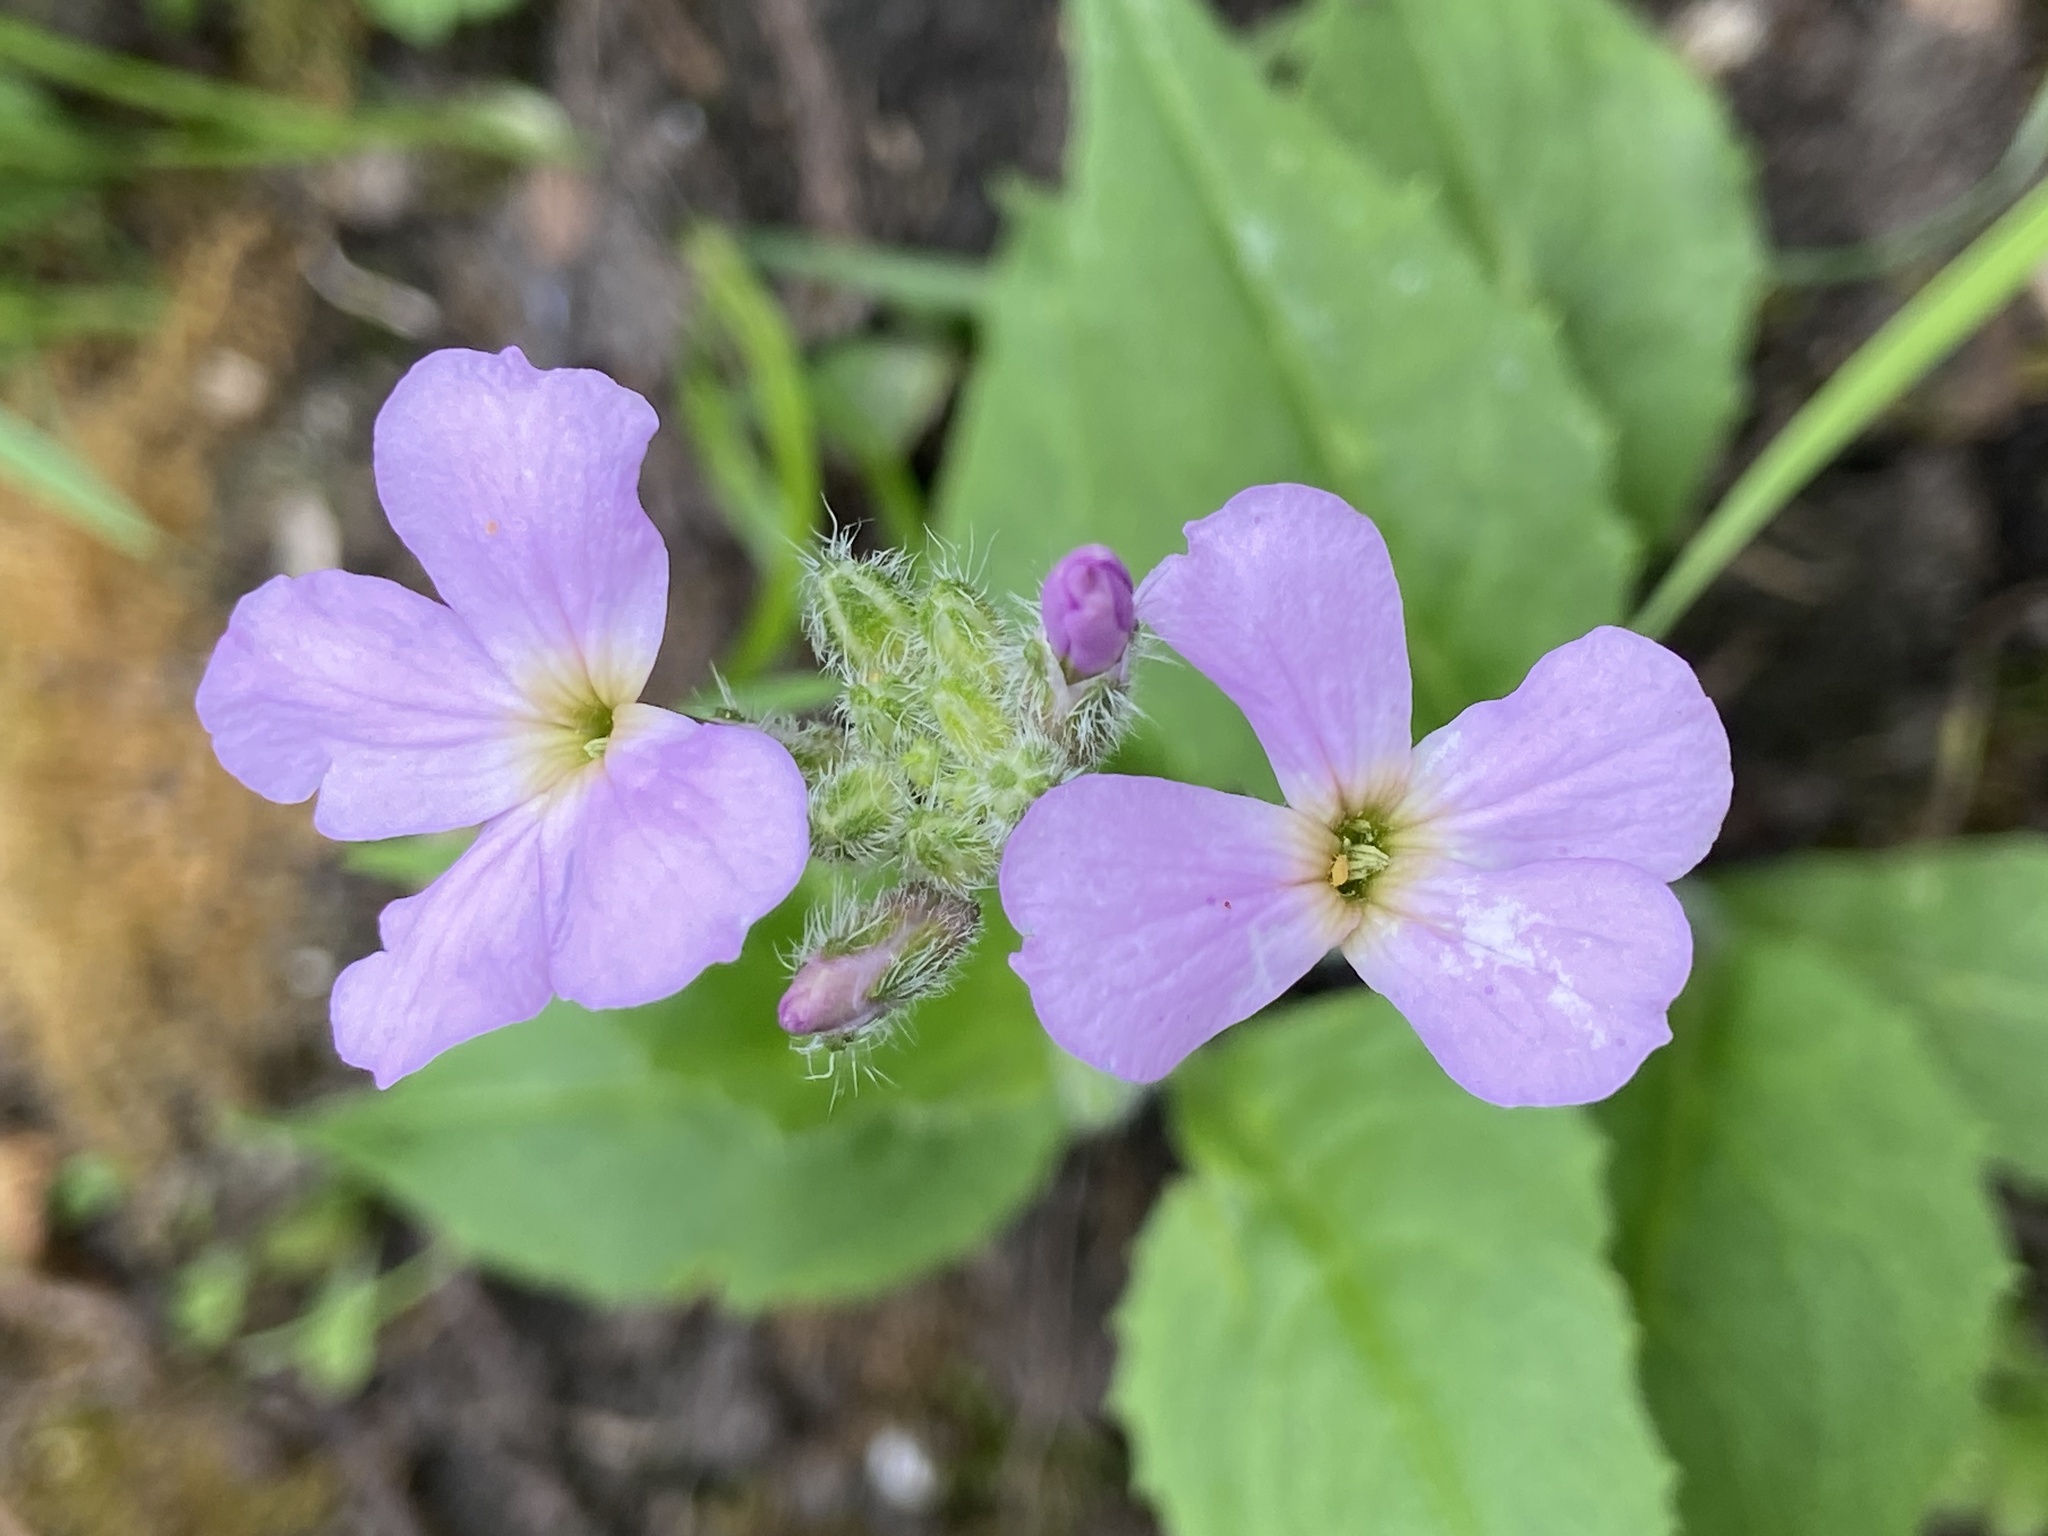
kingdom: Plantae
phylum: Tracheophyta
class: Magnoliopsida
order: Brassicales
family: Brassicaceae
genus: Hesperis
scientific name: Hesperis matronalis
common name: Dame's-violet
